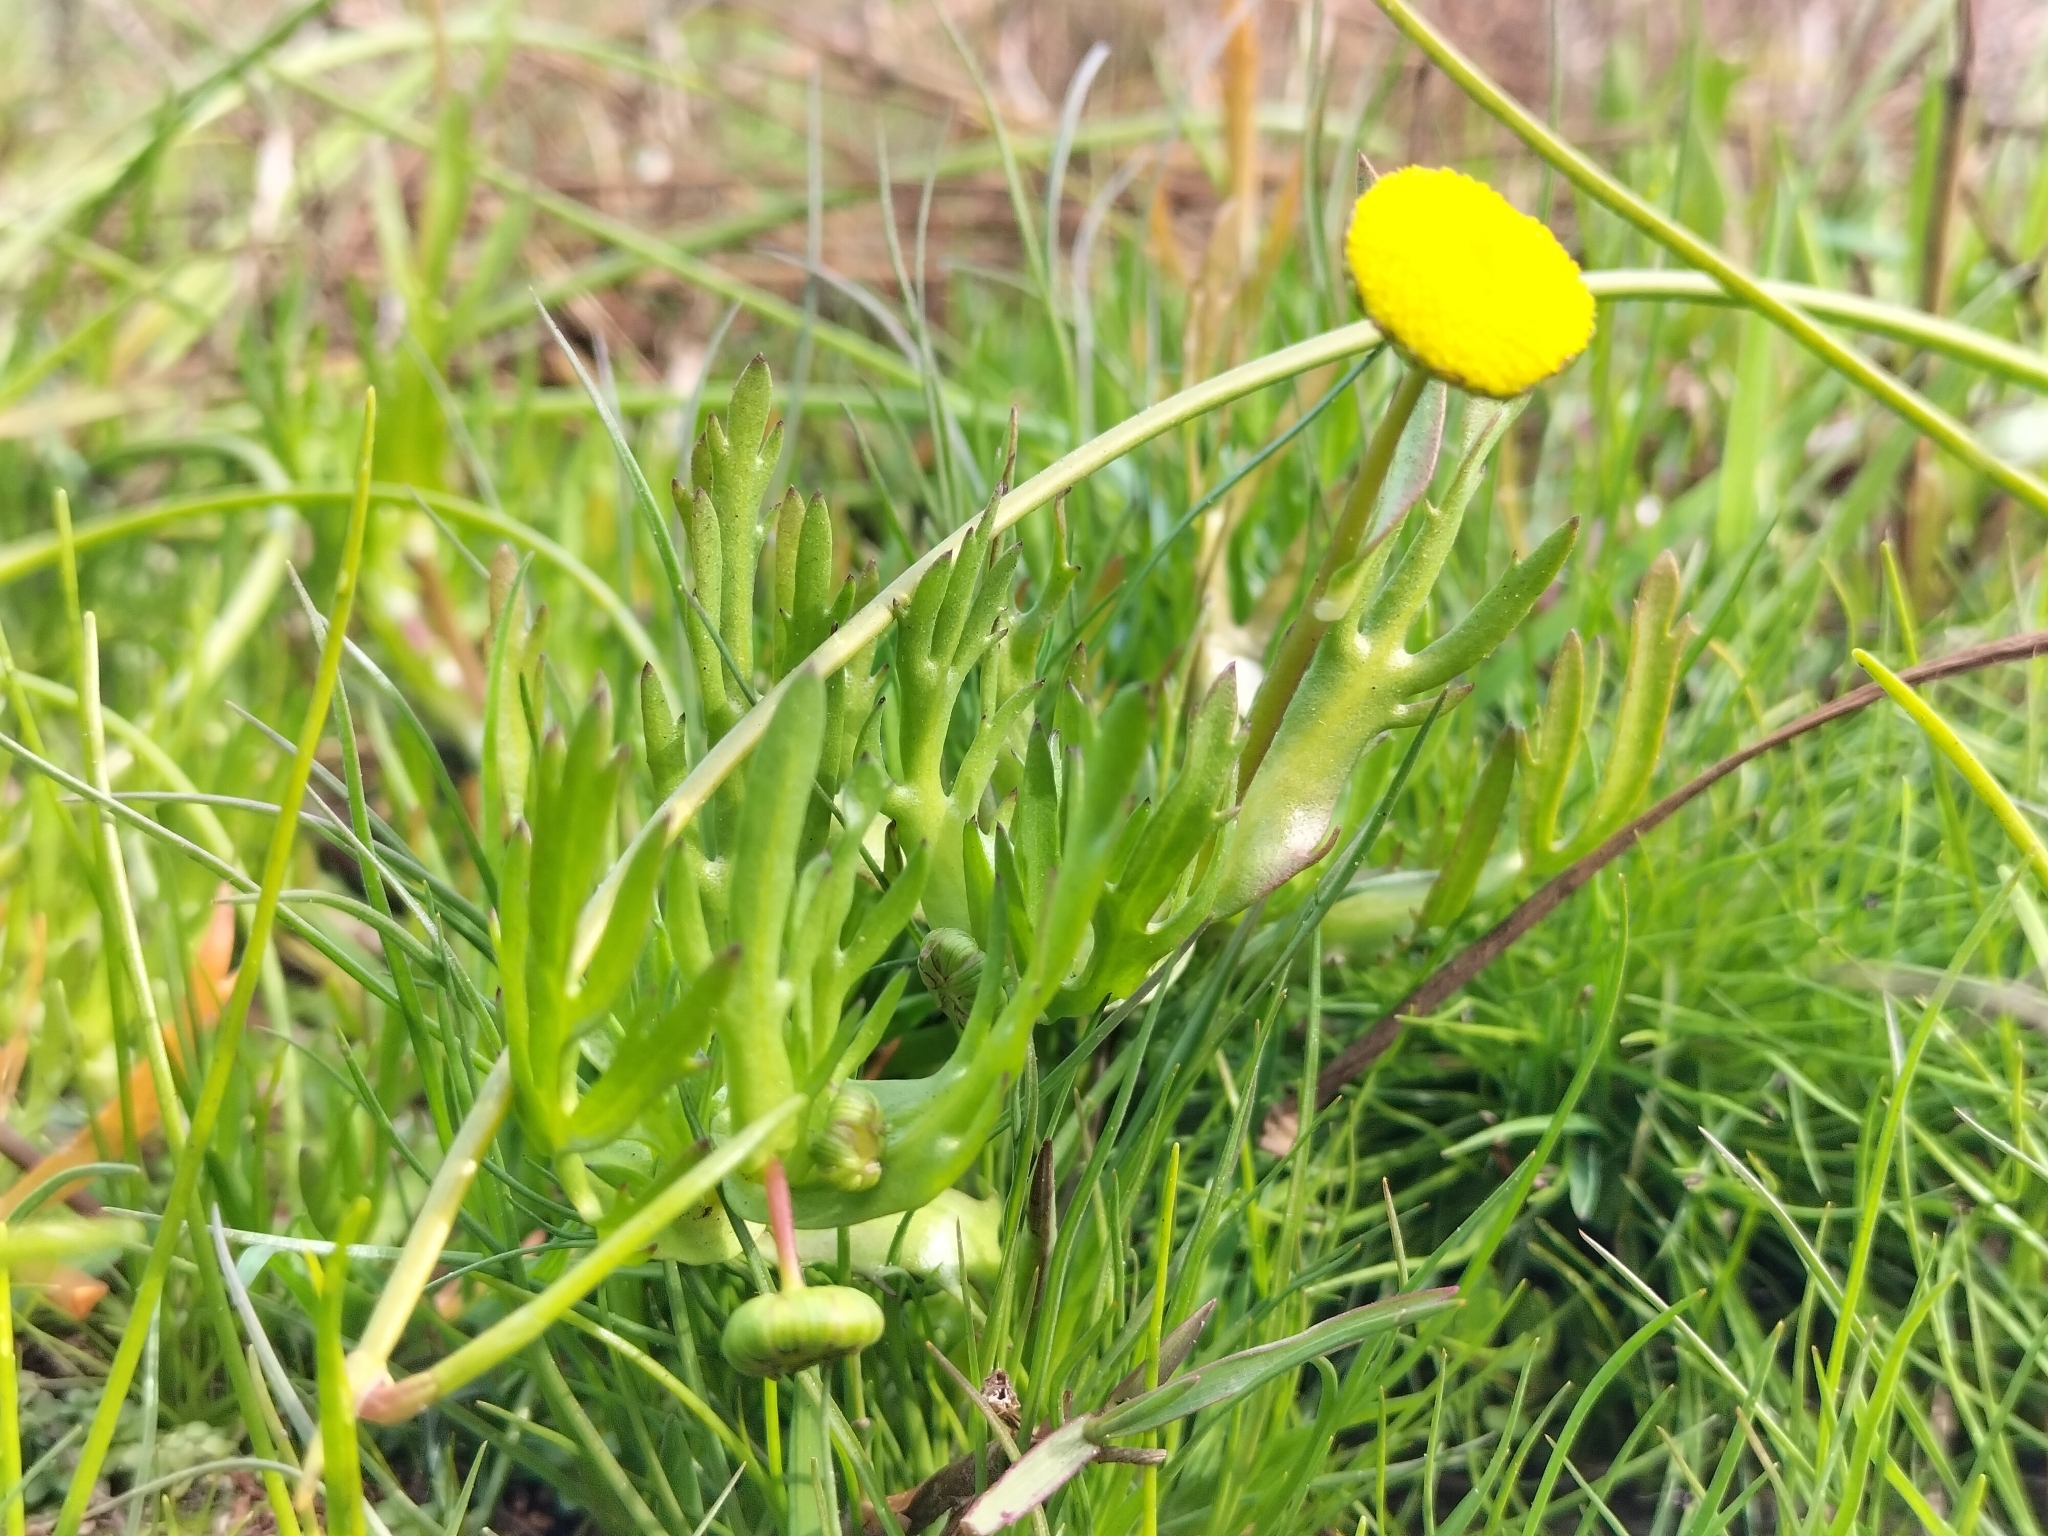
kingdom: Plantae
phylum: Tracheophyta
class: Magnoliopsida
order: Asterales
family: Asteraceae
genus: Cotula
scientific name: Cotula coronopifolia
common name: Buttonweed
